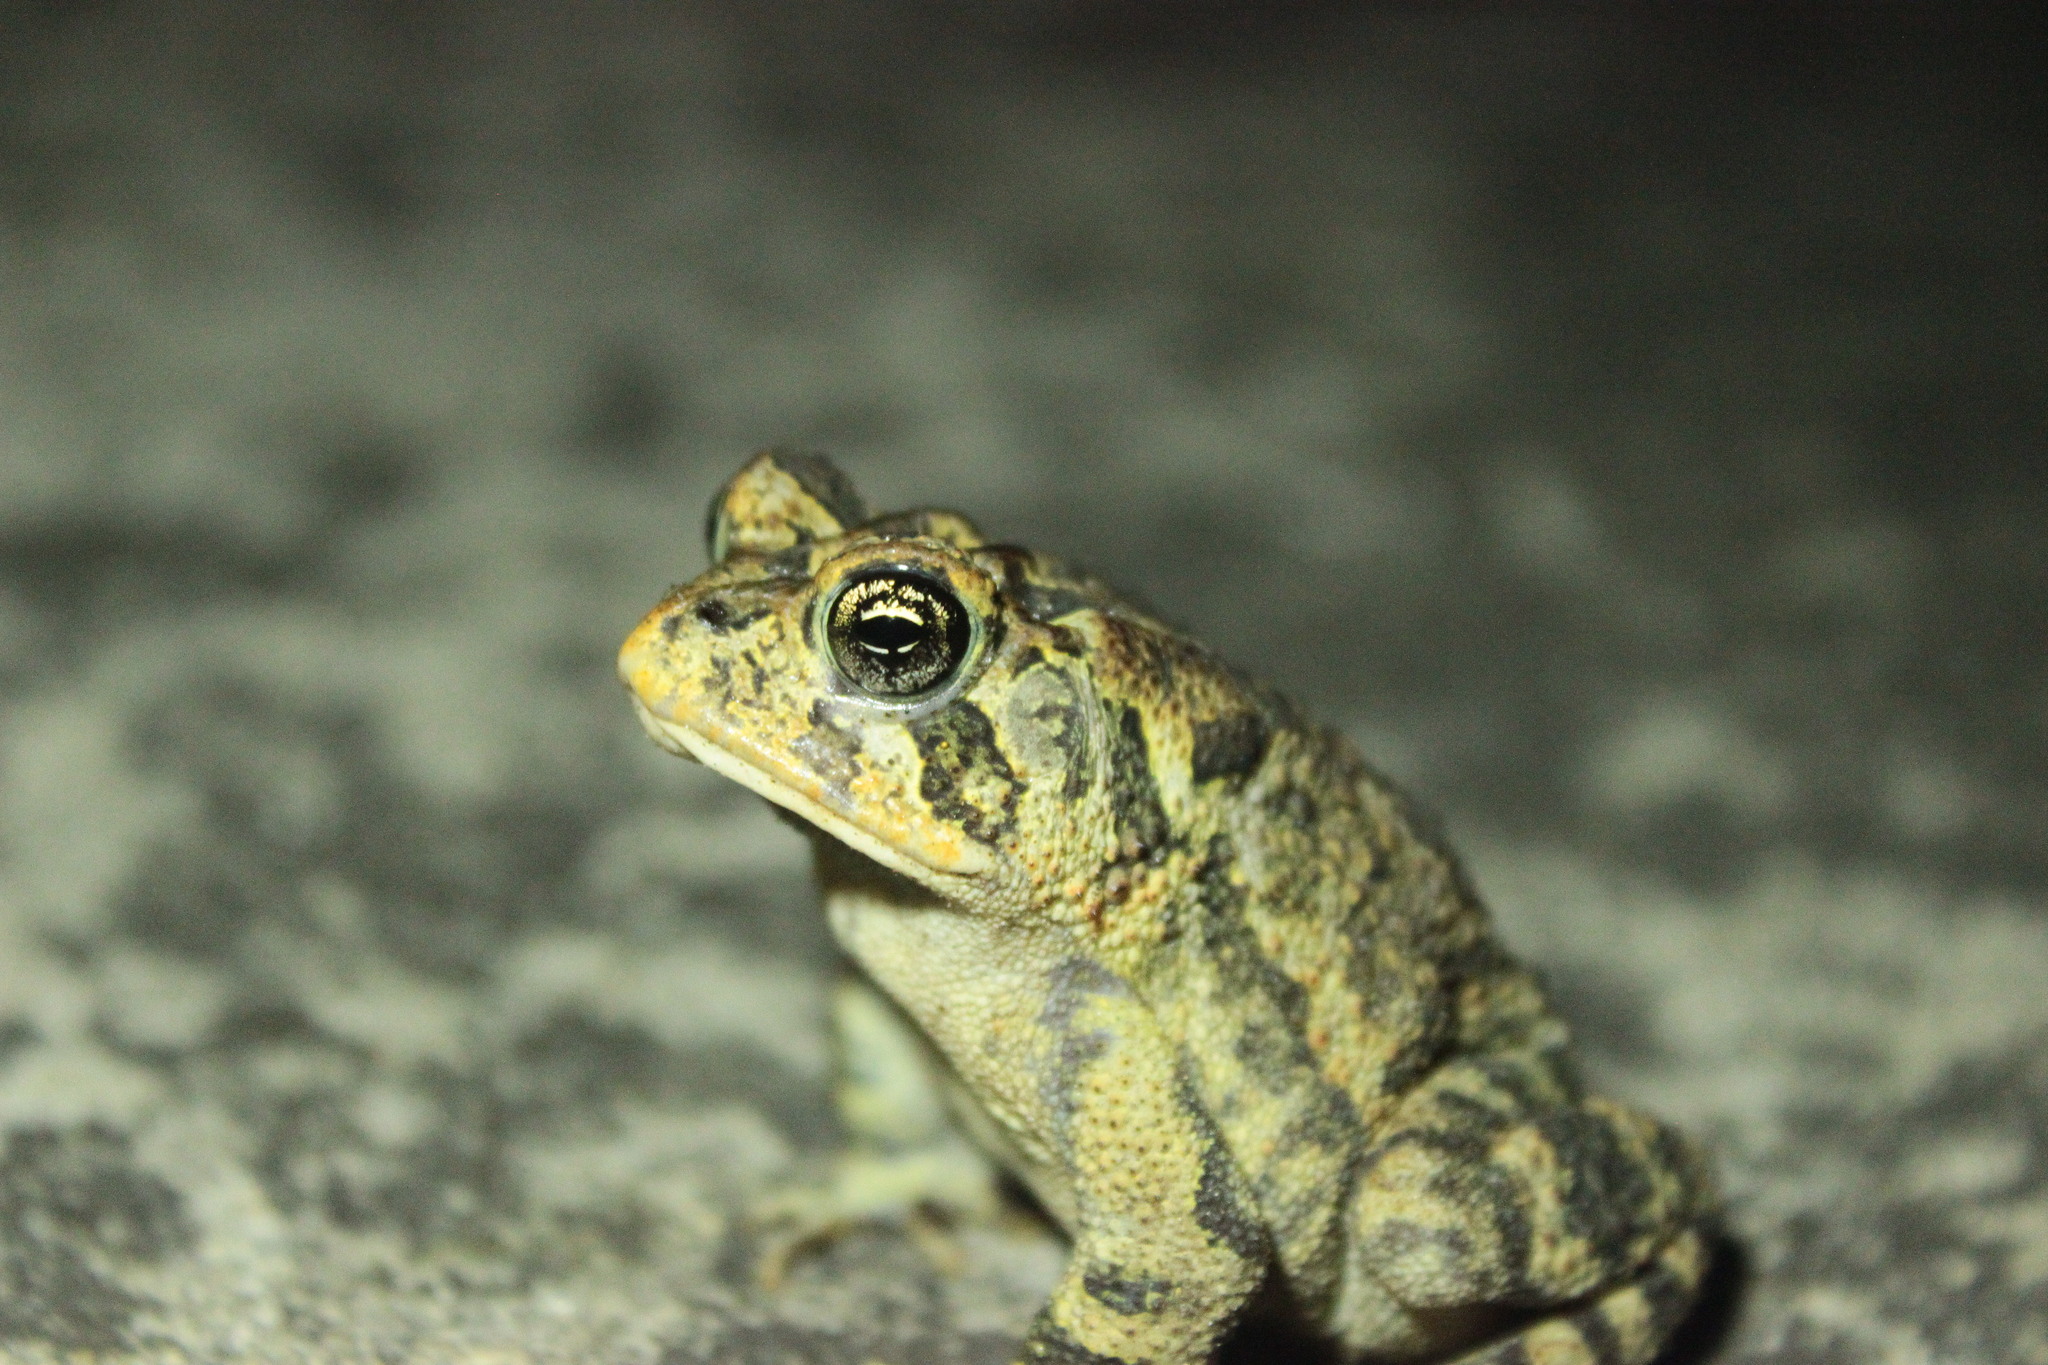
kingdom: Animalia
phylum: Chordata
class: Amphibia
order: Anura
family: Bufonidae
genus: Anaxyrus
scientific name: Anaxyrus terrestris
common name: Southern toad
